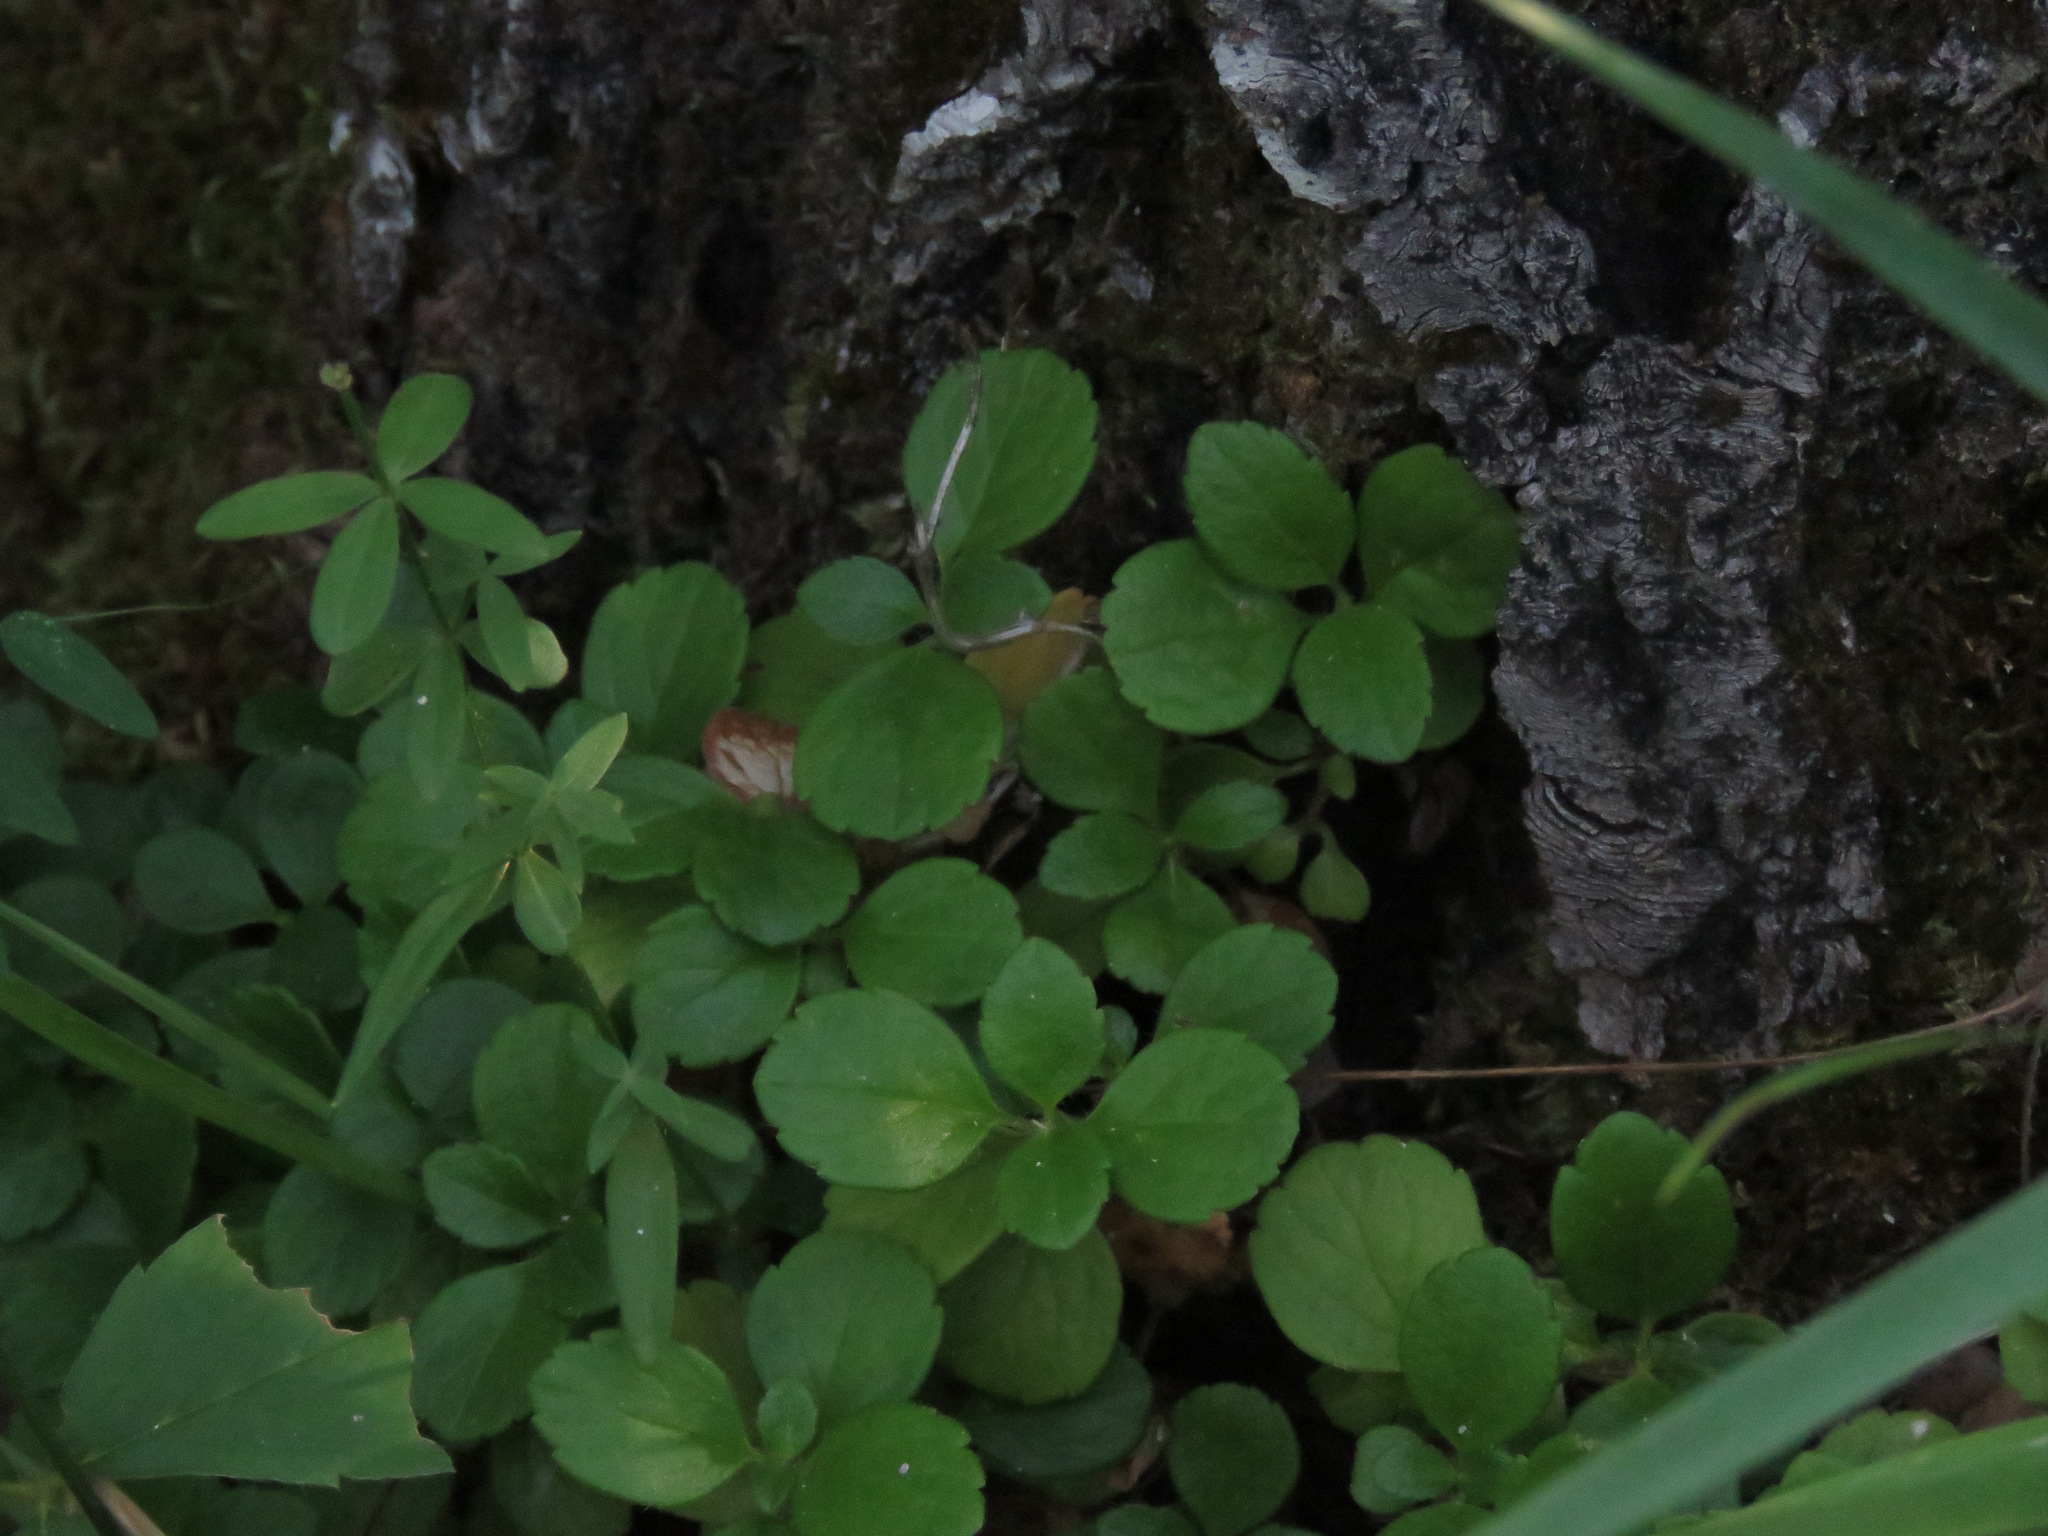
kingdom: Plantae
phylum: Tracheophyta
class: Magnoliopsida
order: Dipsacales
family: Caprifoliaceae
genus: Linnaea
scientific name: Linnaea borealis
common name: Twinflower
